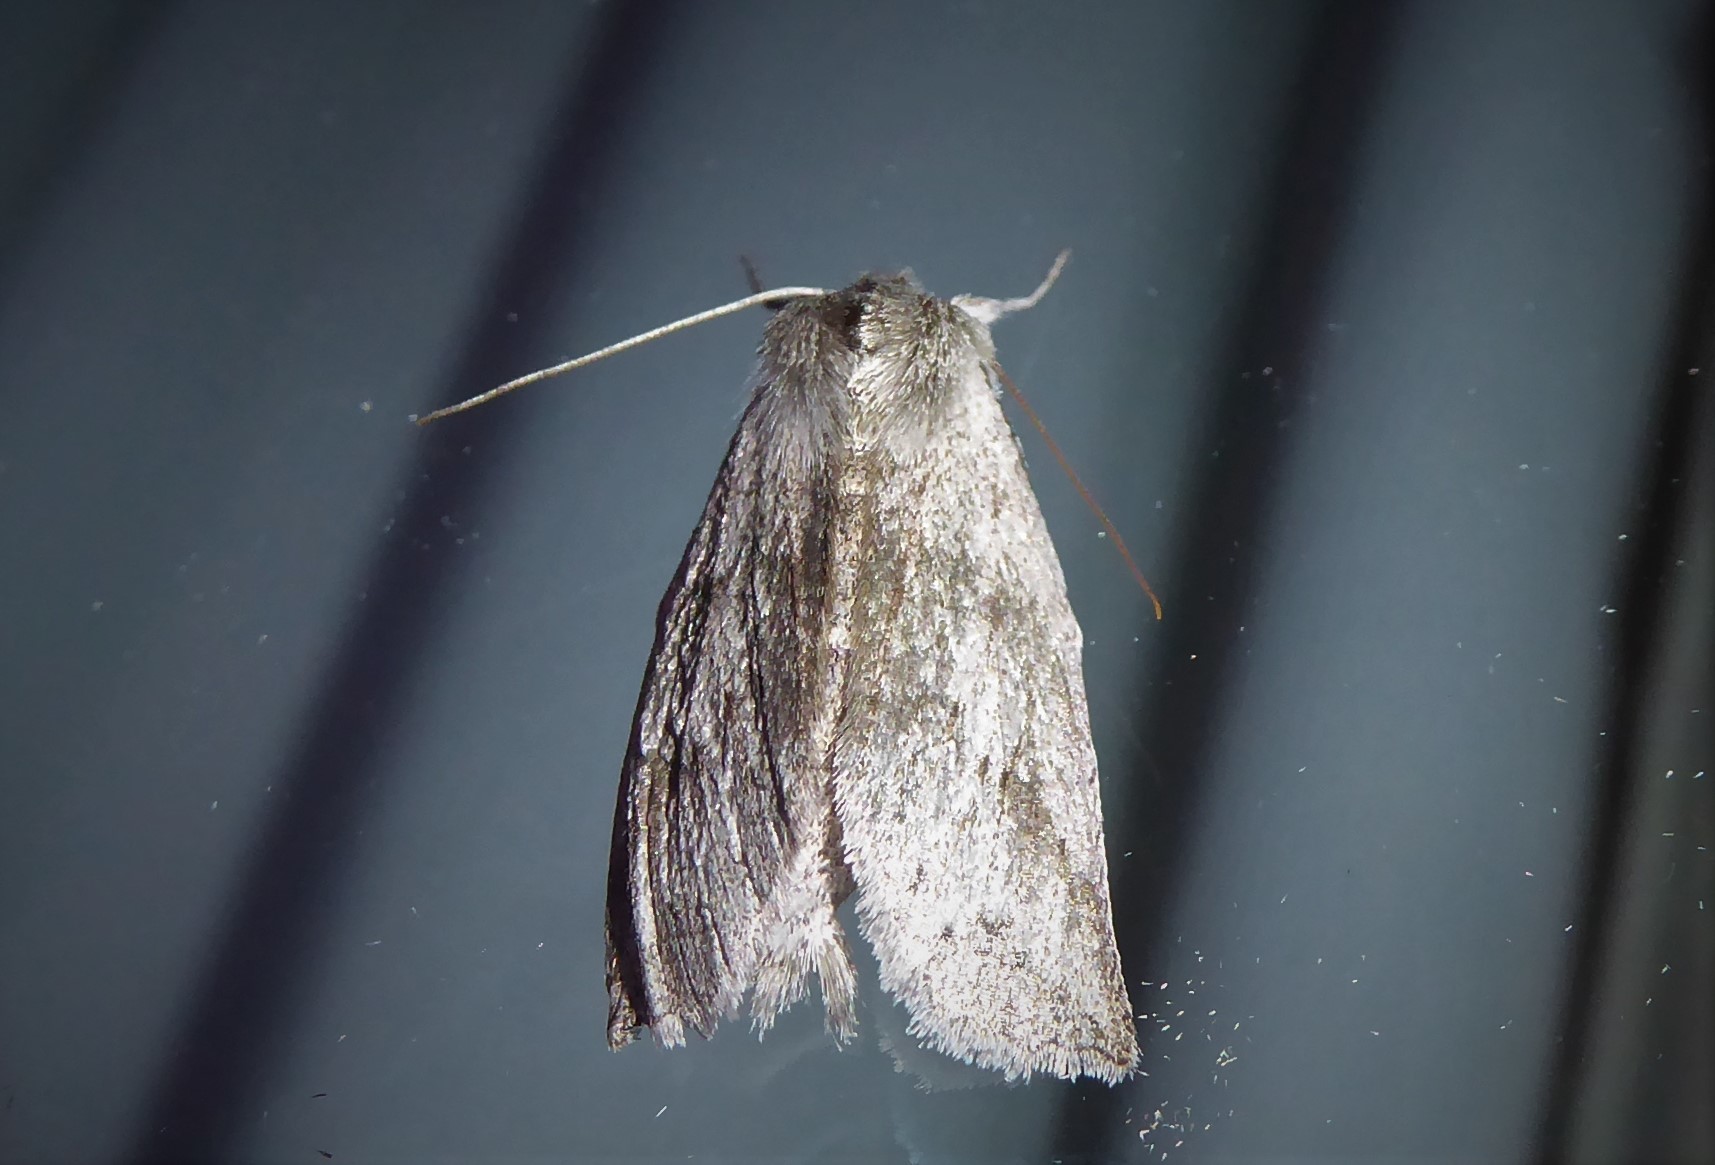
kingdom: Animalia
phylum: Arthropoda
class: Insecta
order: Lepidoptera
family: Geometridae
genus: Declana
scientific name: Declana leptomera
